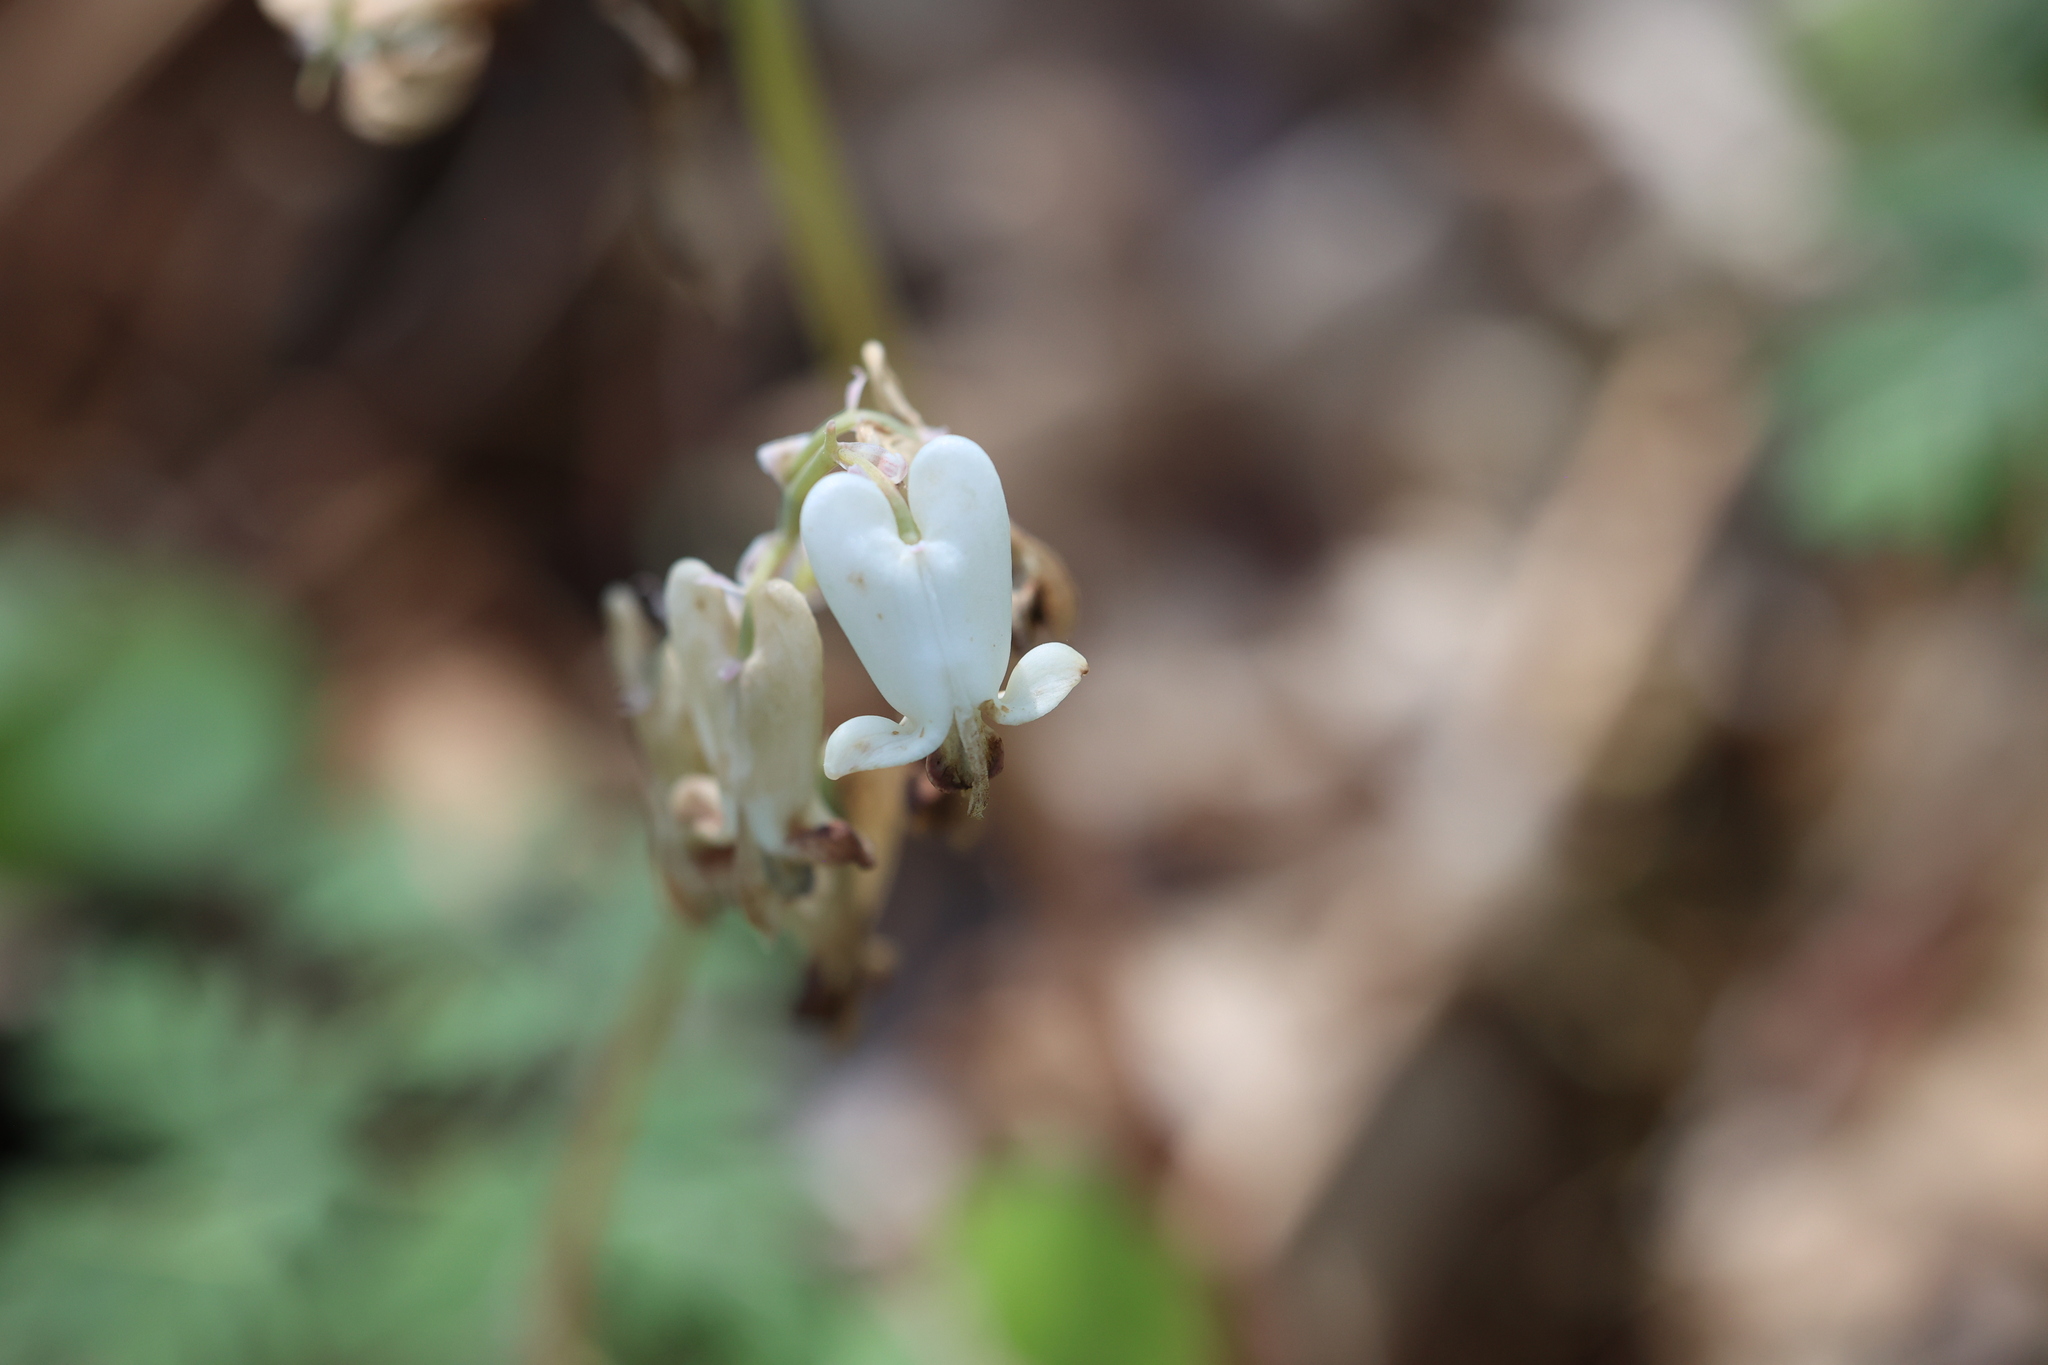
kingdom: Plantae
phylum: Tracheophyta
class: Magnoliopsida
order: Ranunculales
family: Papaveraceae
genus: Dicentra
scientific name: Dicentra canadensis
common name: Squirrel-corn
